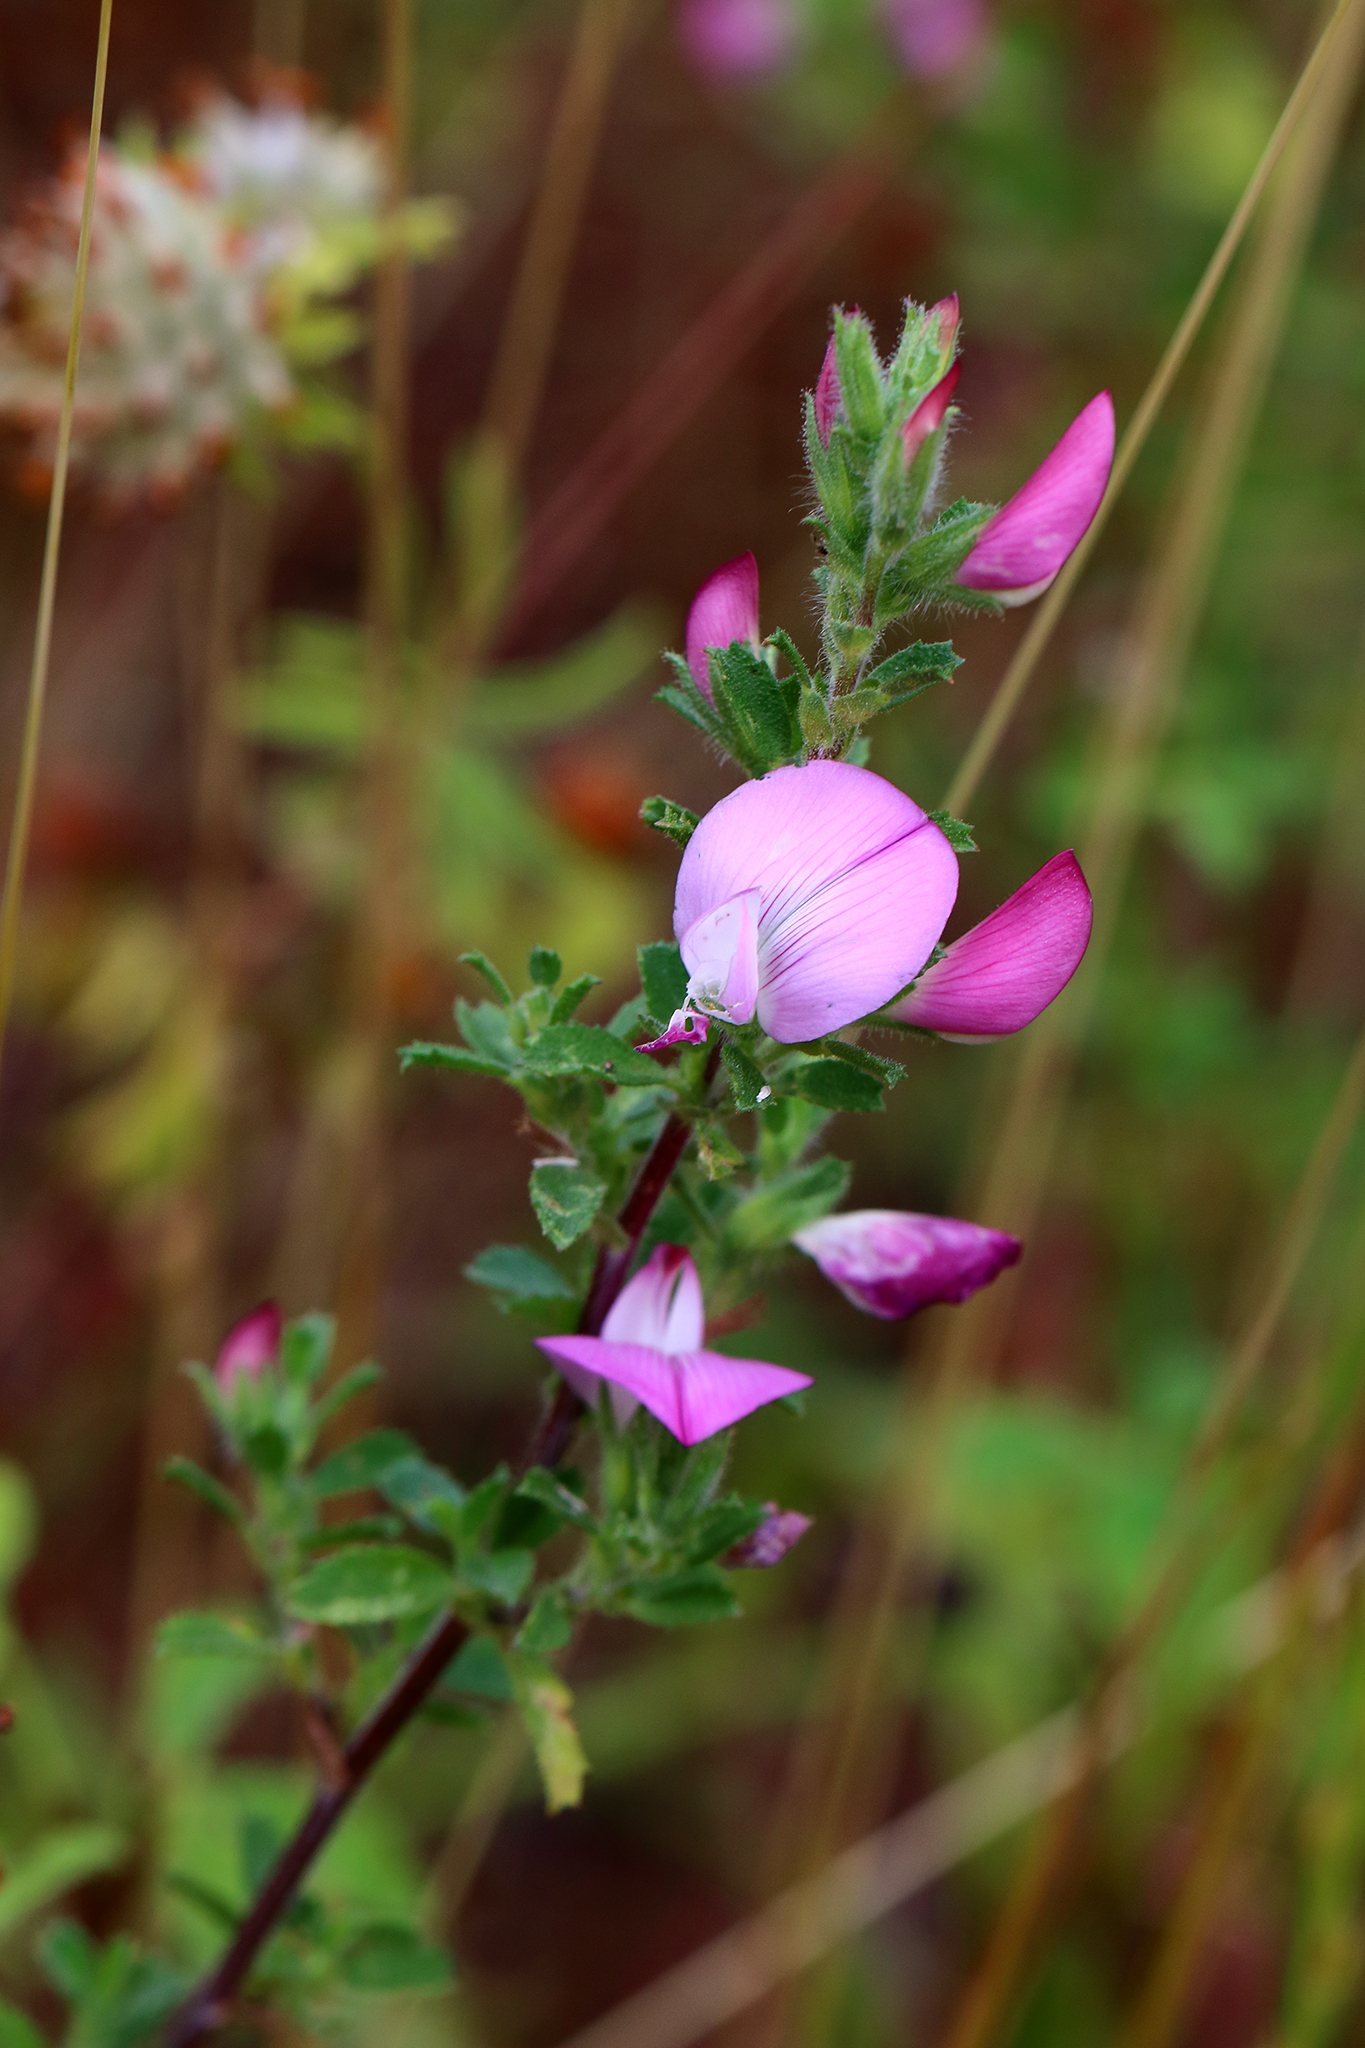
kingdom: Plantae
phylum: Tracheophyta
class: Magnoliopsida
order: Fabales
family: Fabaceae
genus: Ononis
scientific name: Ononis spinosa
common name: Spiny restharrow
